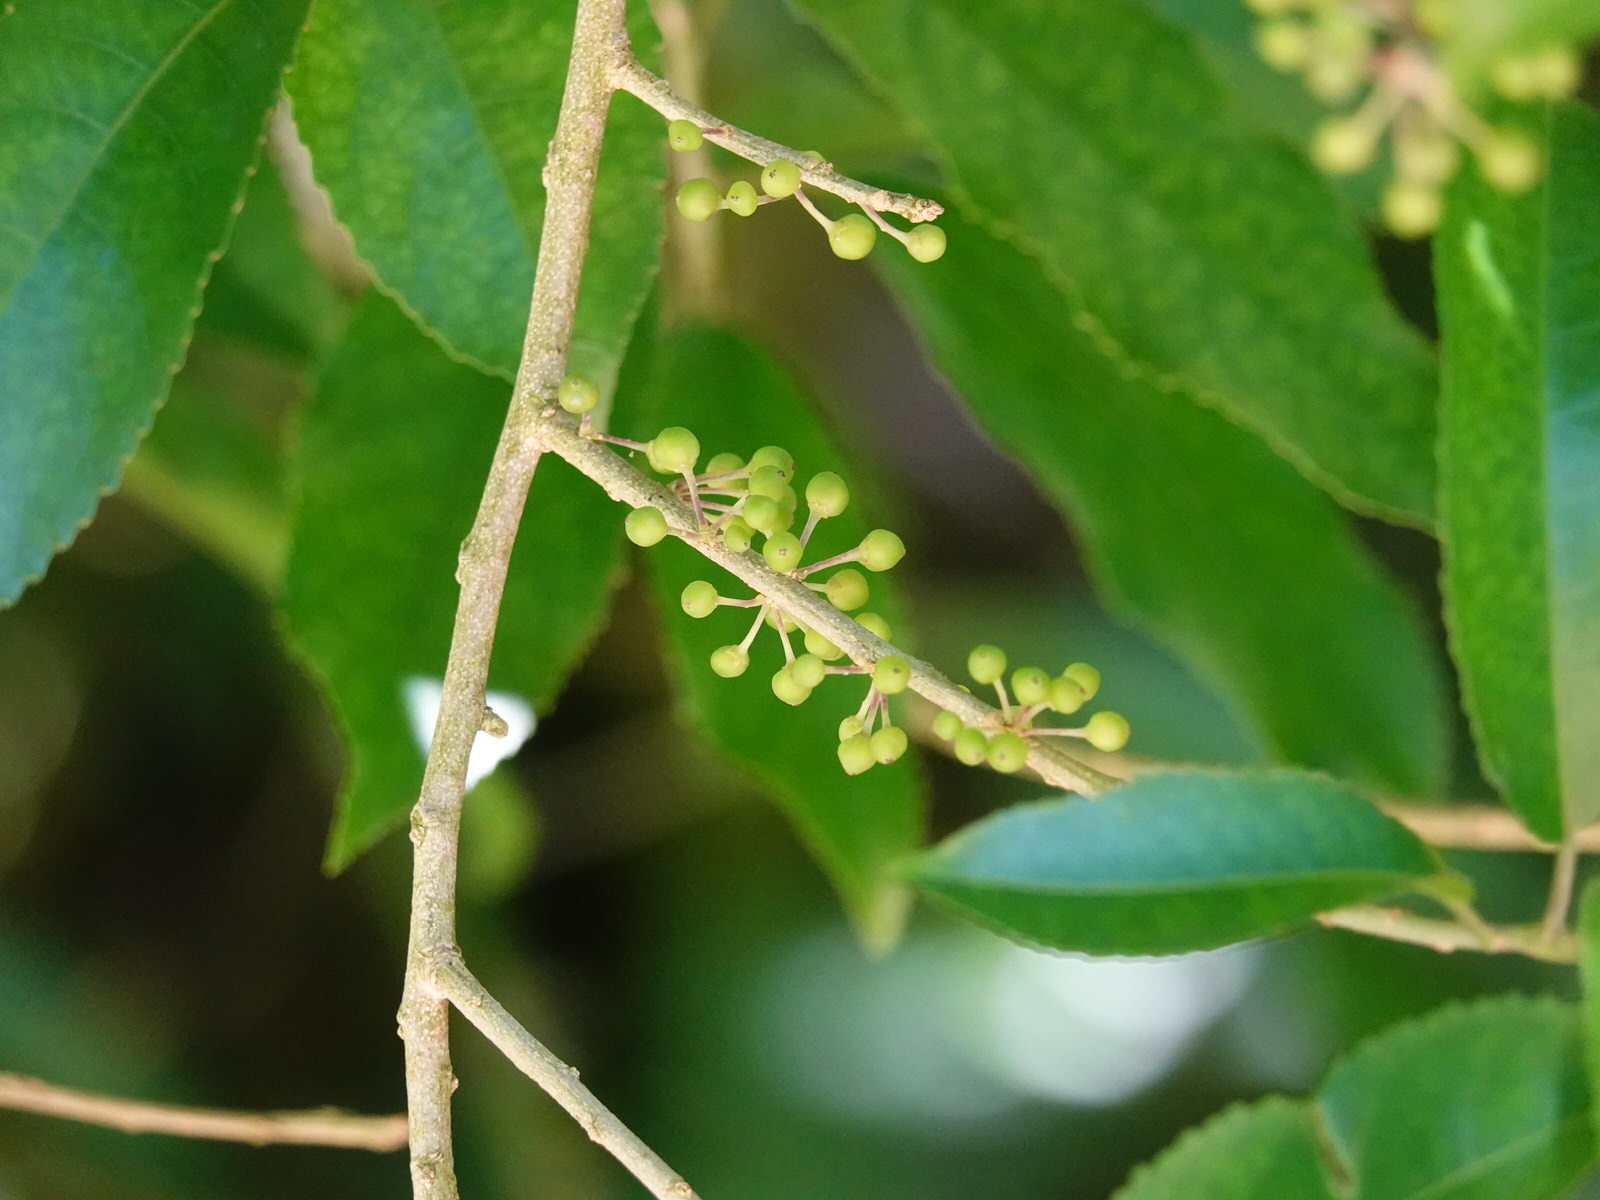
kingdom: Plantae
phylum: Tracheophyta
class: Magnoliopsida
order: Malpighiales
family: Violaceae
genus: Melicytus
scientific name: Melicytus ramiflorus
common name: Mahoe
